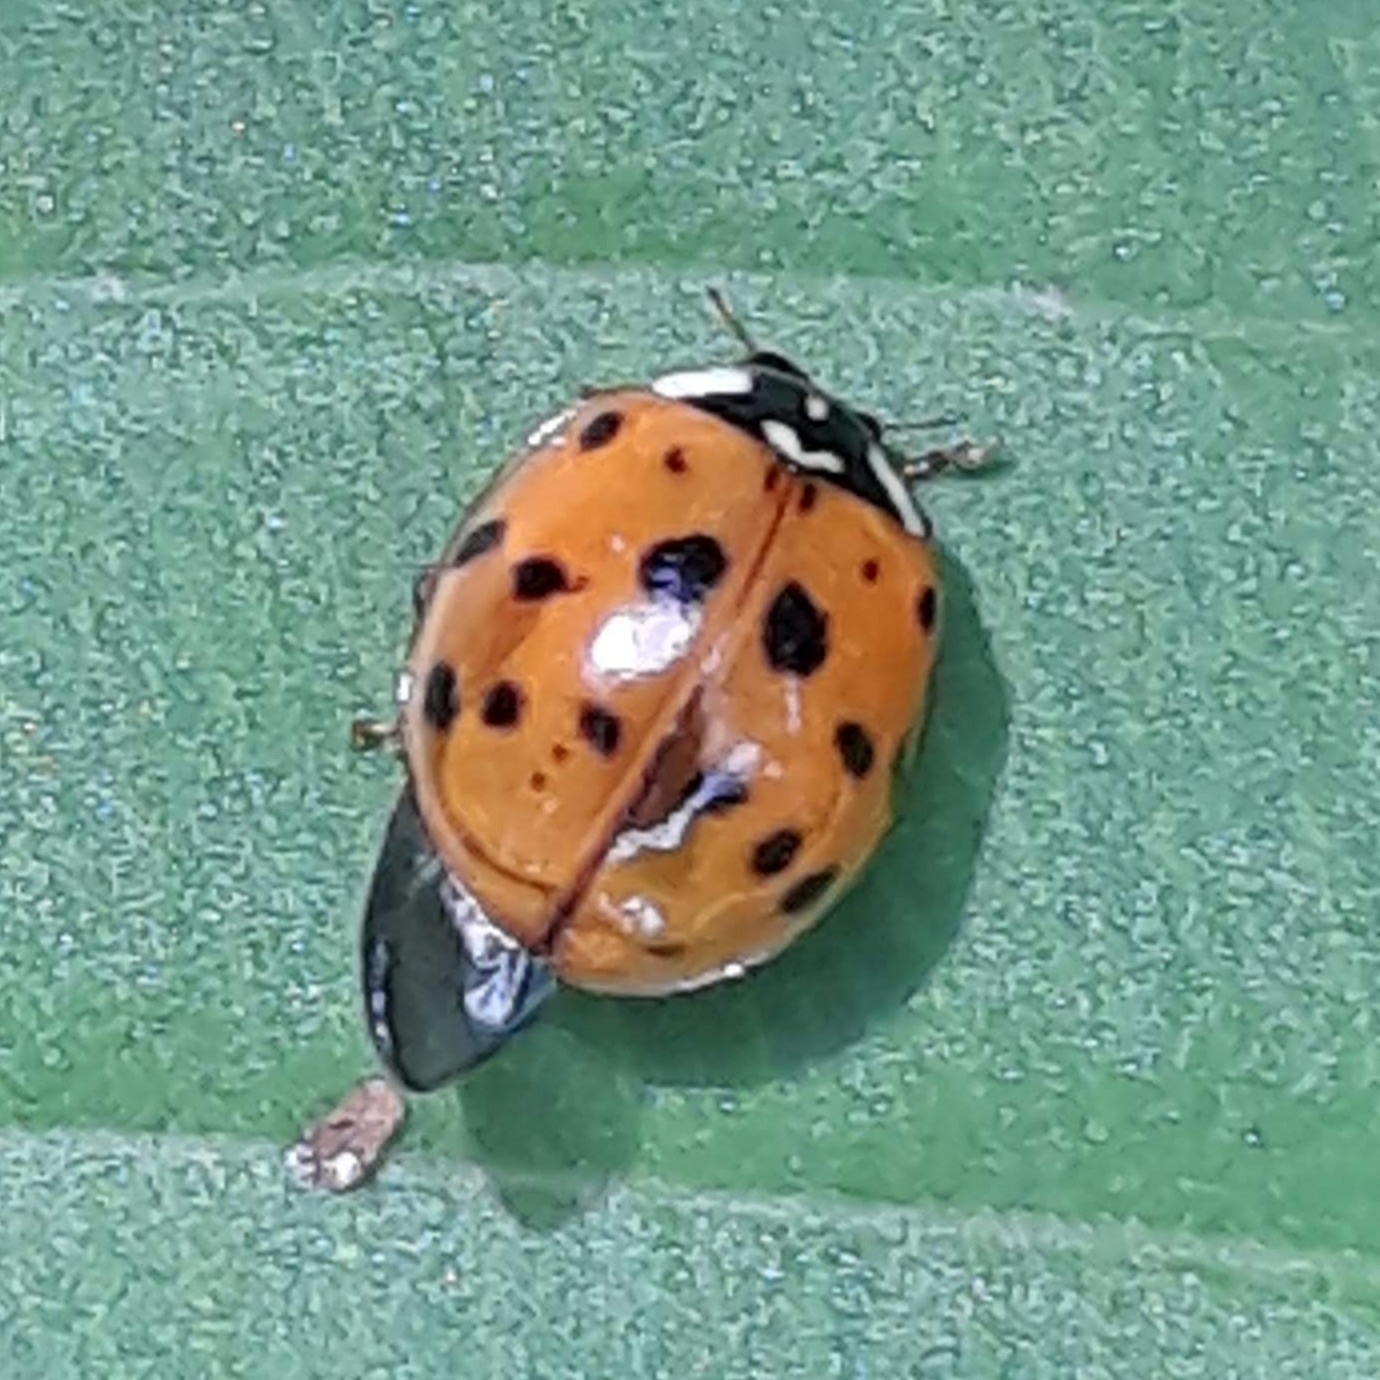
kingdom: Animalia
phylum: Arthropoda
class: Insecta
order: Coleoptera
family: Coccinellidae
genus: Harmonia
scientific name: Harmonia axyridis
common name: Harlequin ladybird
